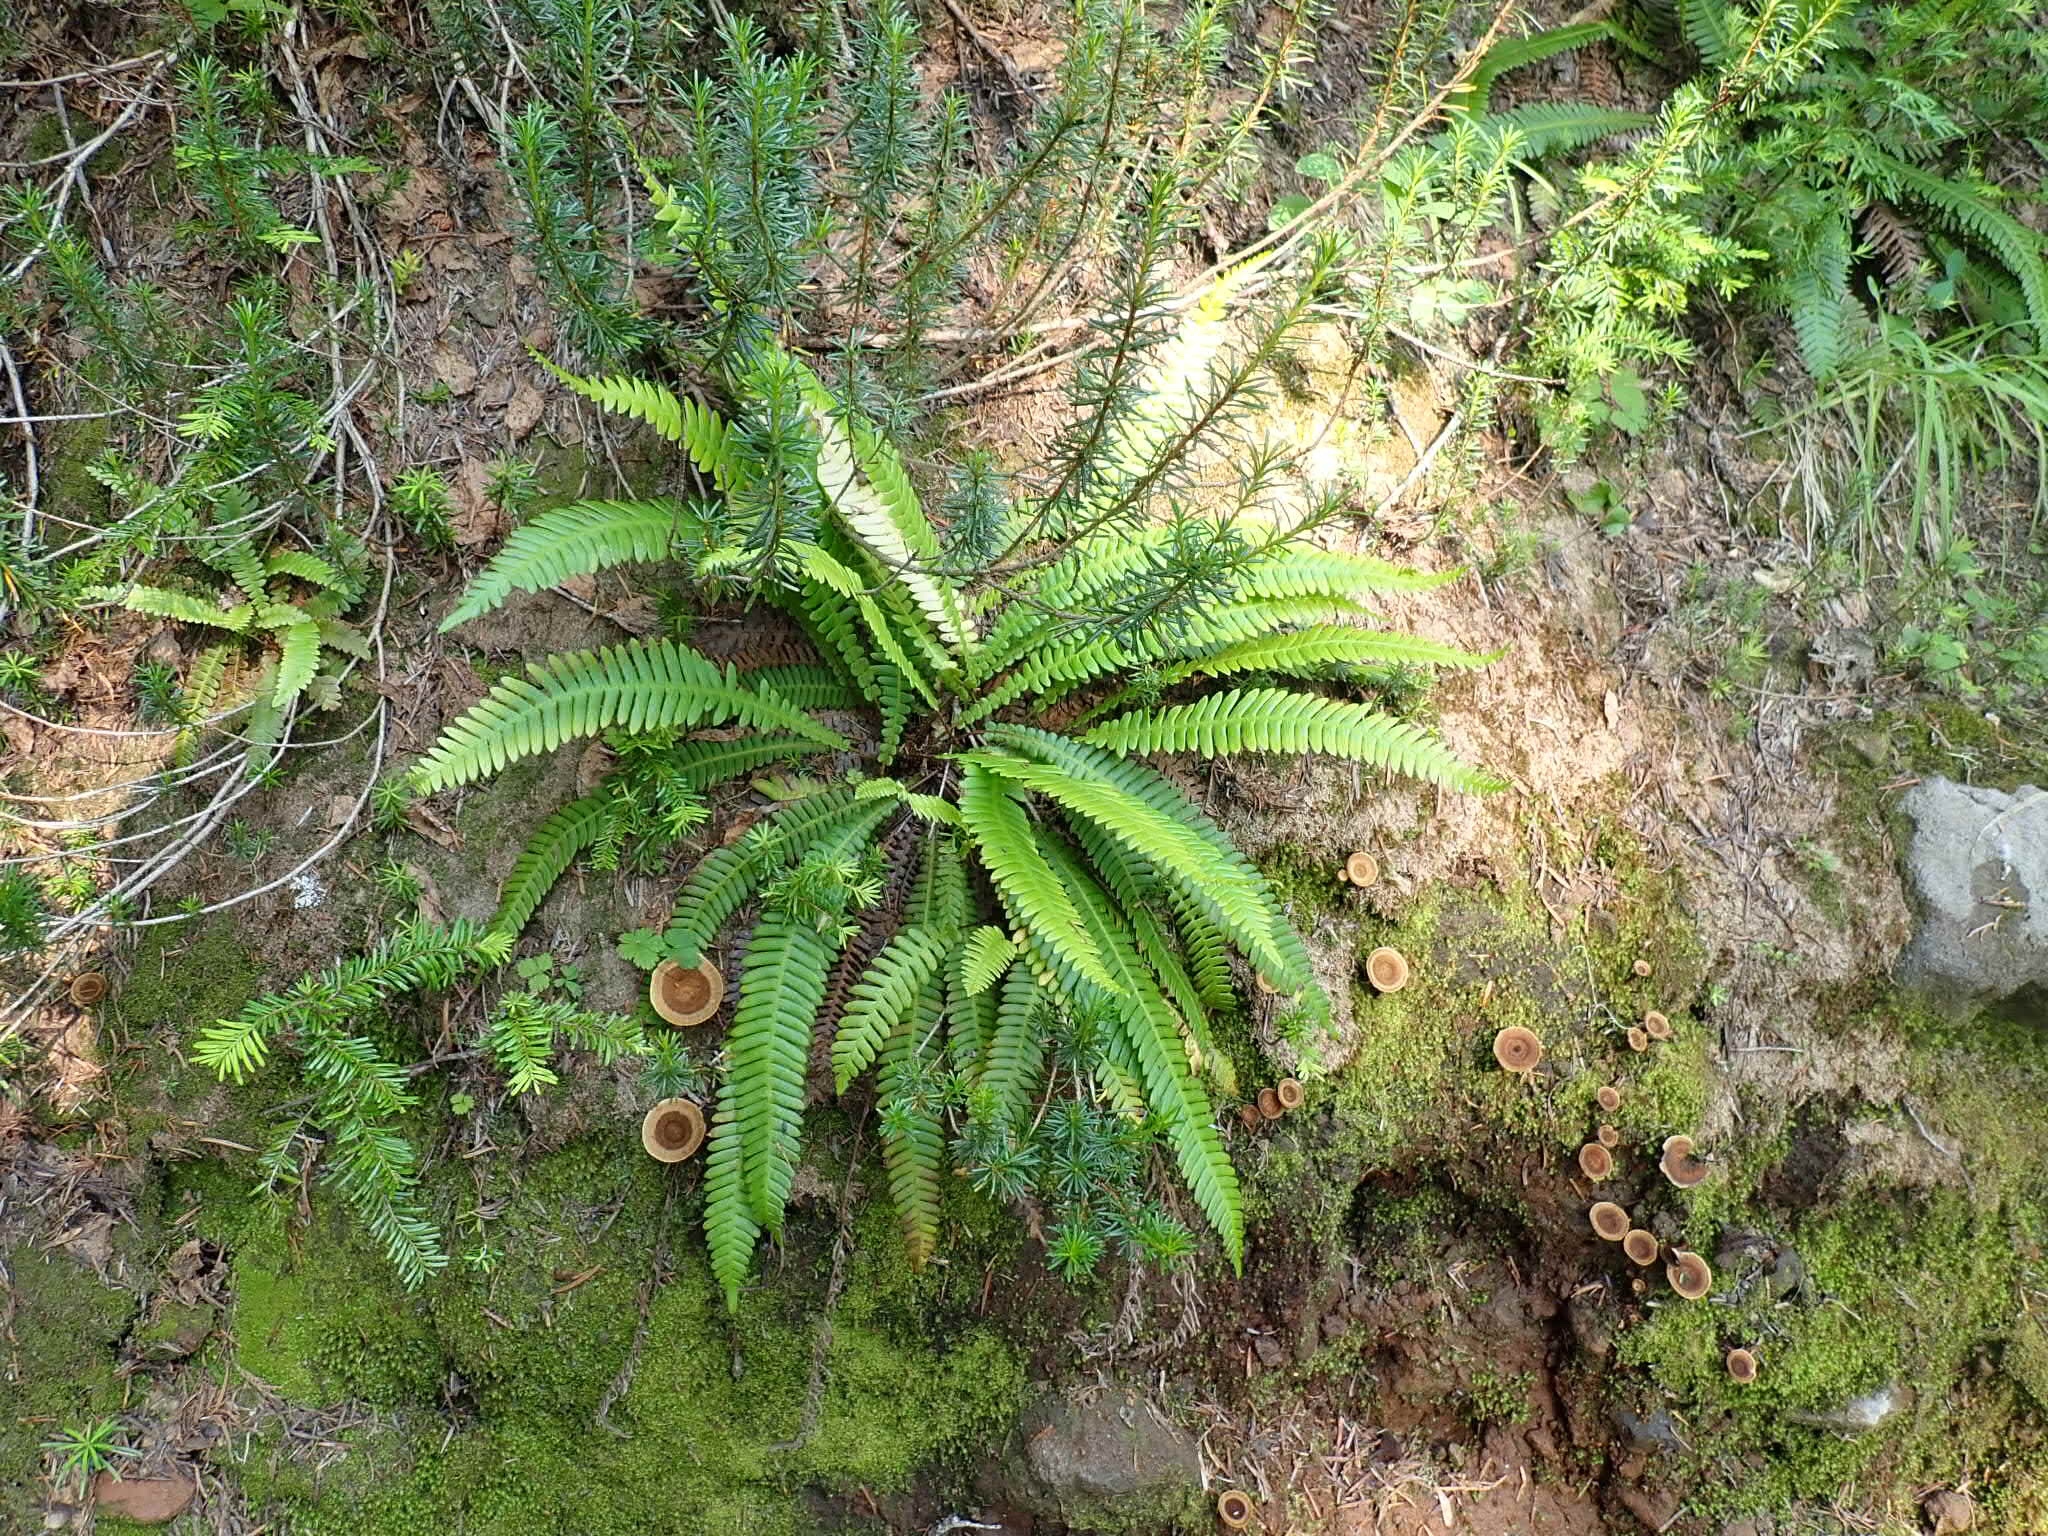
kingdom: Plantae
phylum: Tracheophyta
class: Polypodiopsida
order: Polypodiales
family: Blechnaceae
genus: Struthiopteris
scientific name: Struthiopteris spicant
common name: Deer fern
